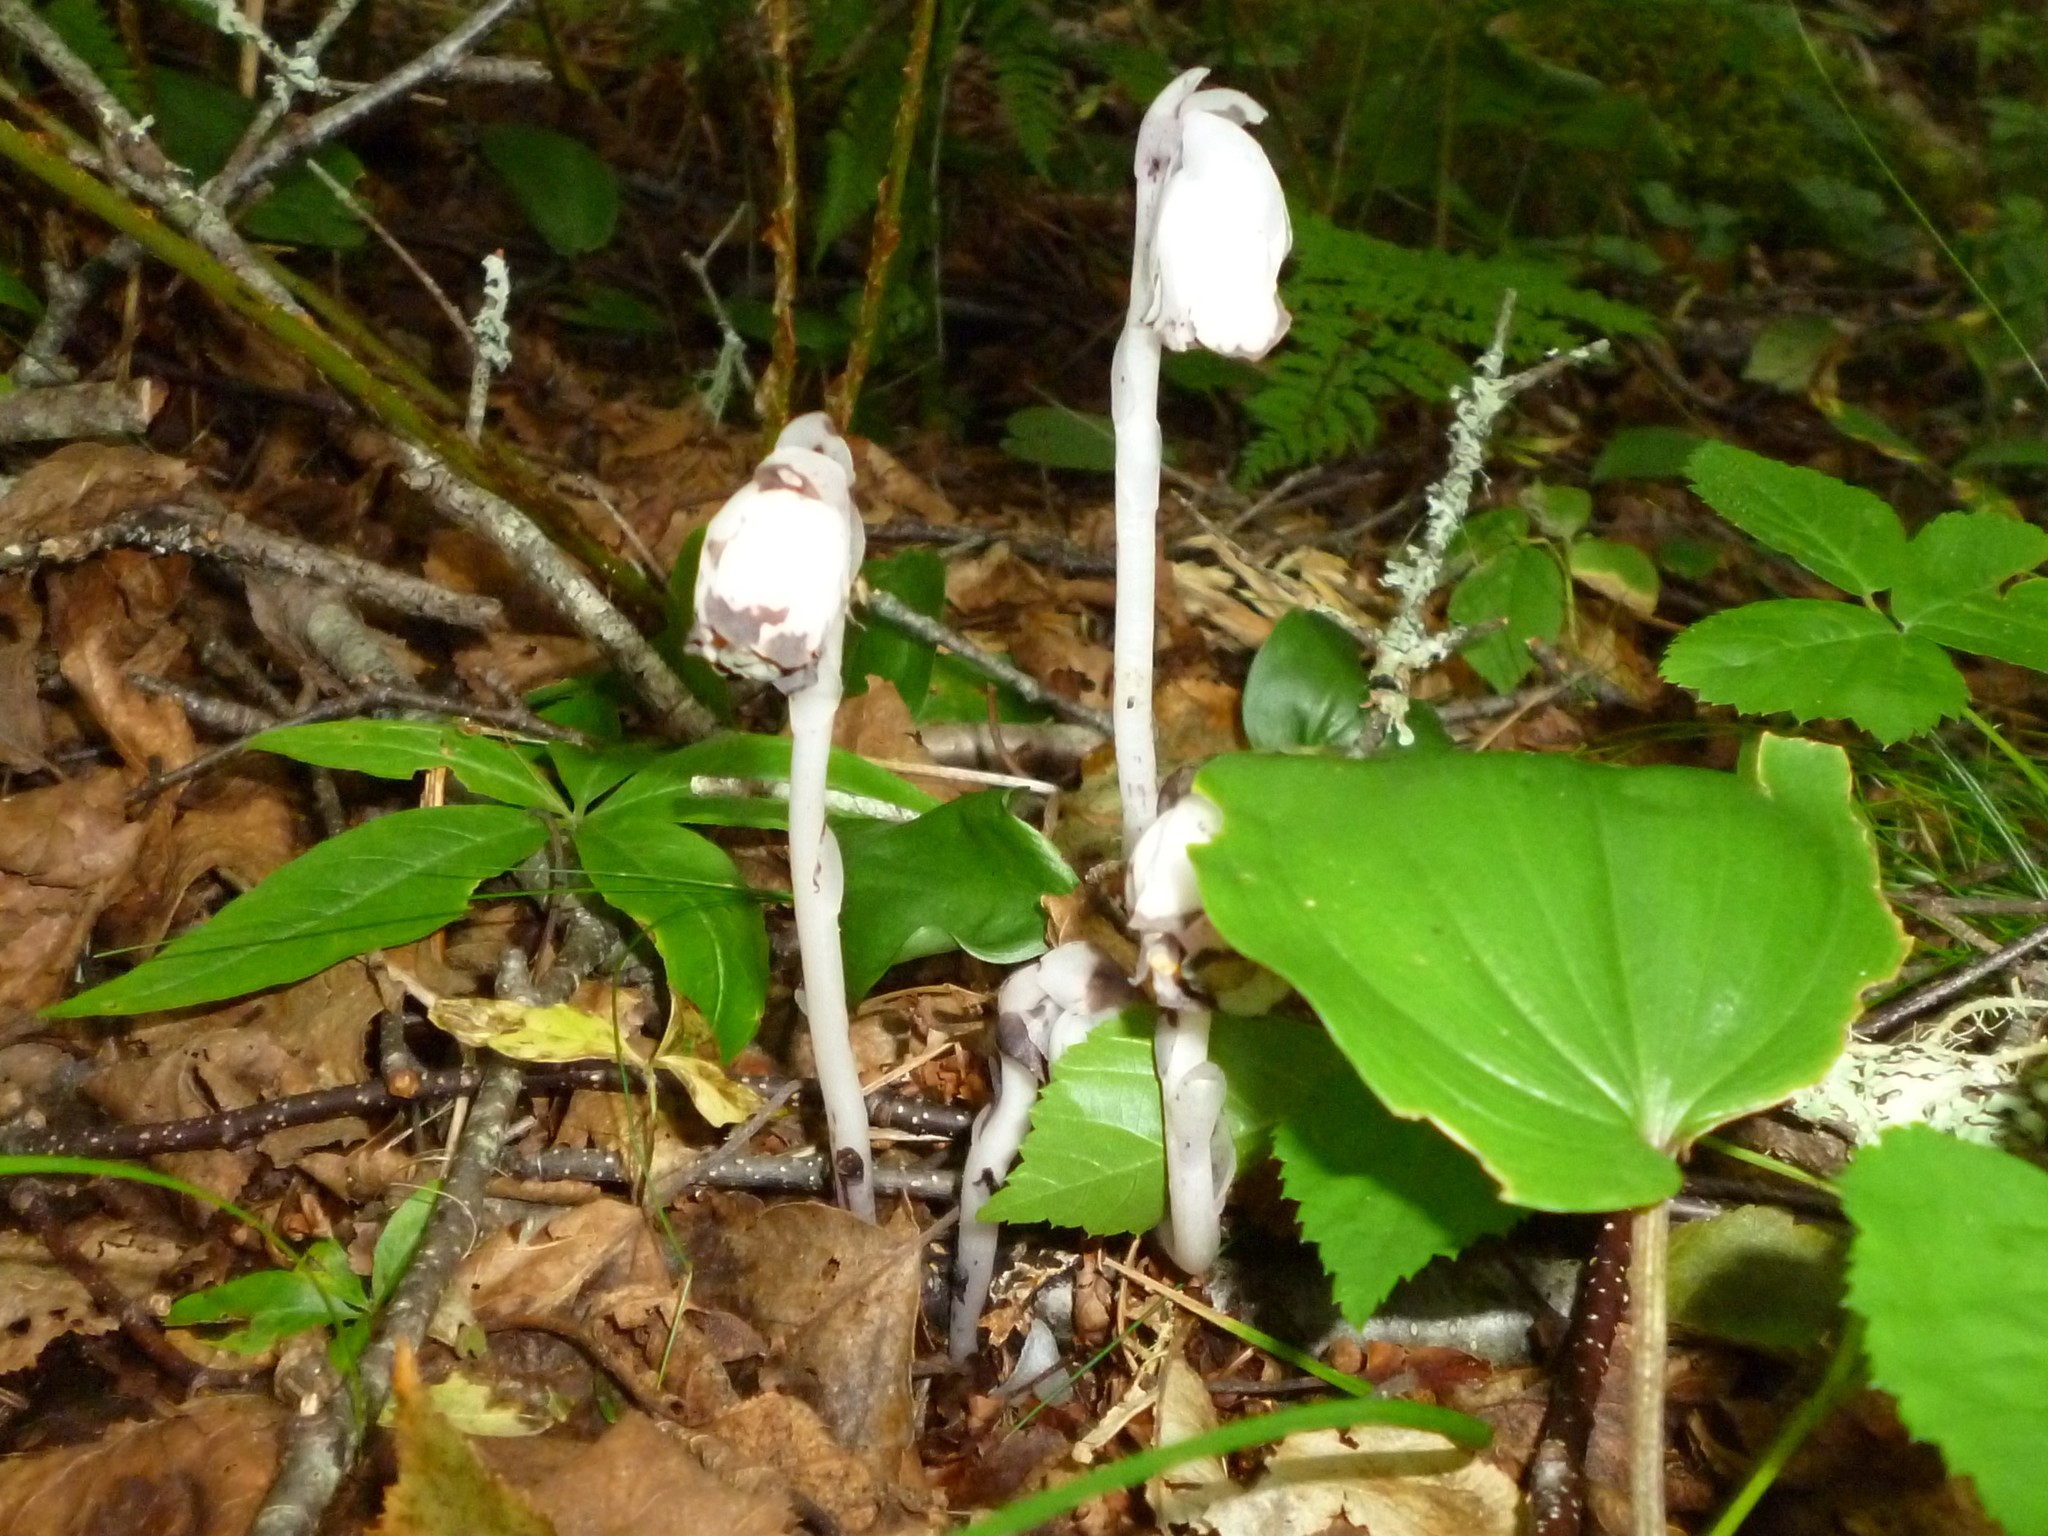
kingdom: Plantae
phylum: Tracheophyta
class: Magnoliopsida
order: Ericales
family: Ericaceae
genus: Monotropa
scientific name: Monotropa uniflora
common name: Convulsion root
